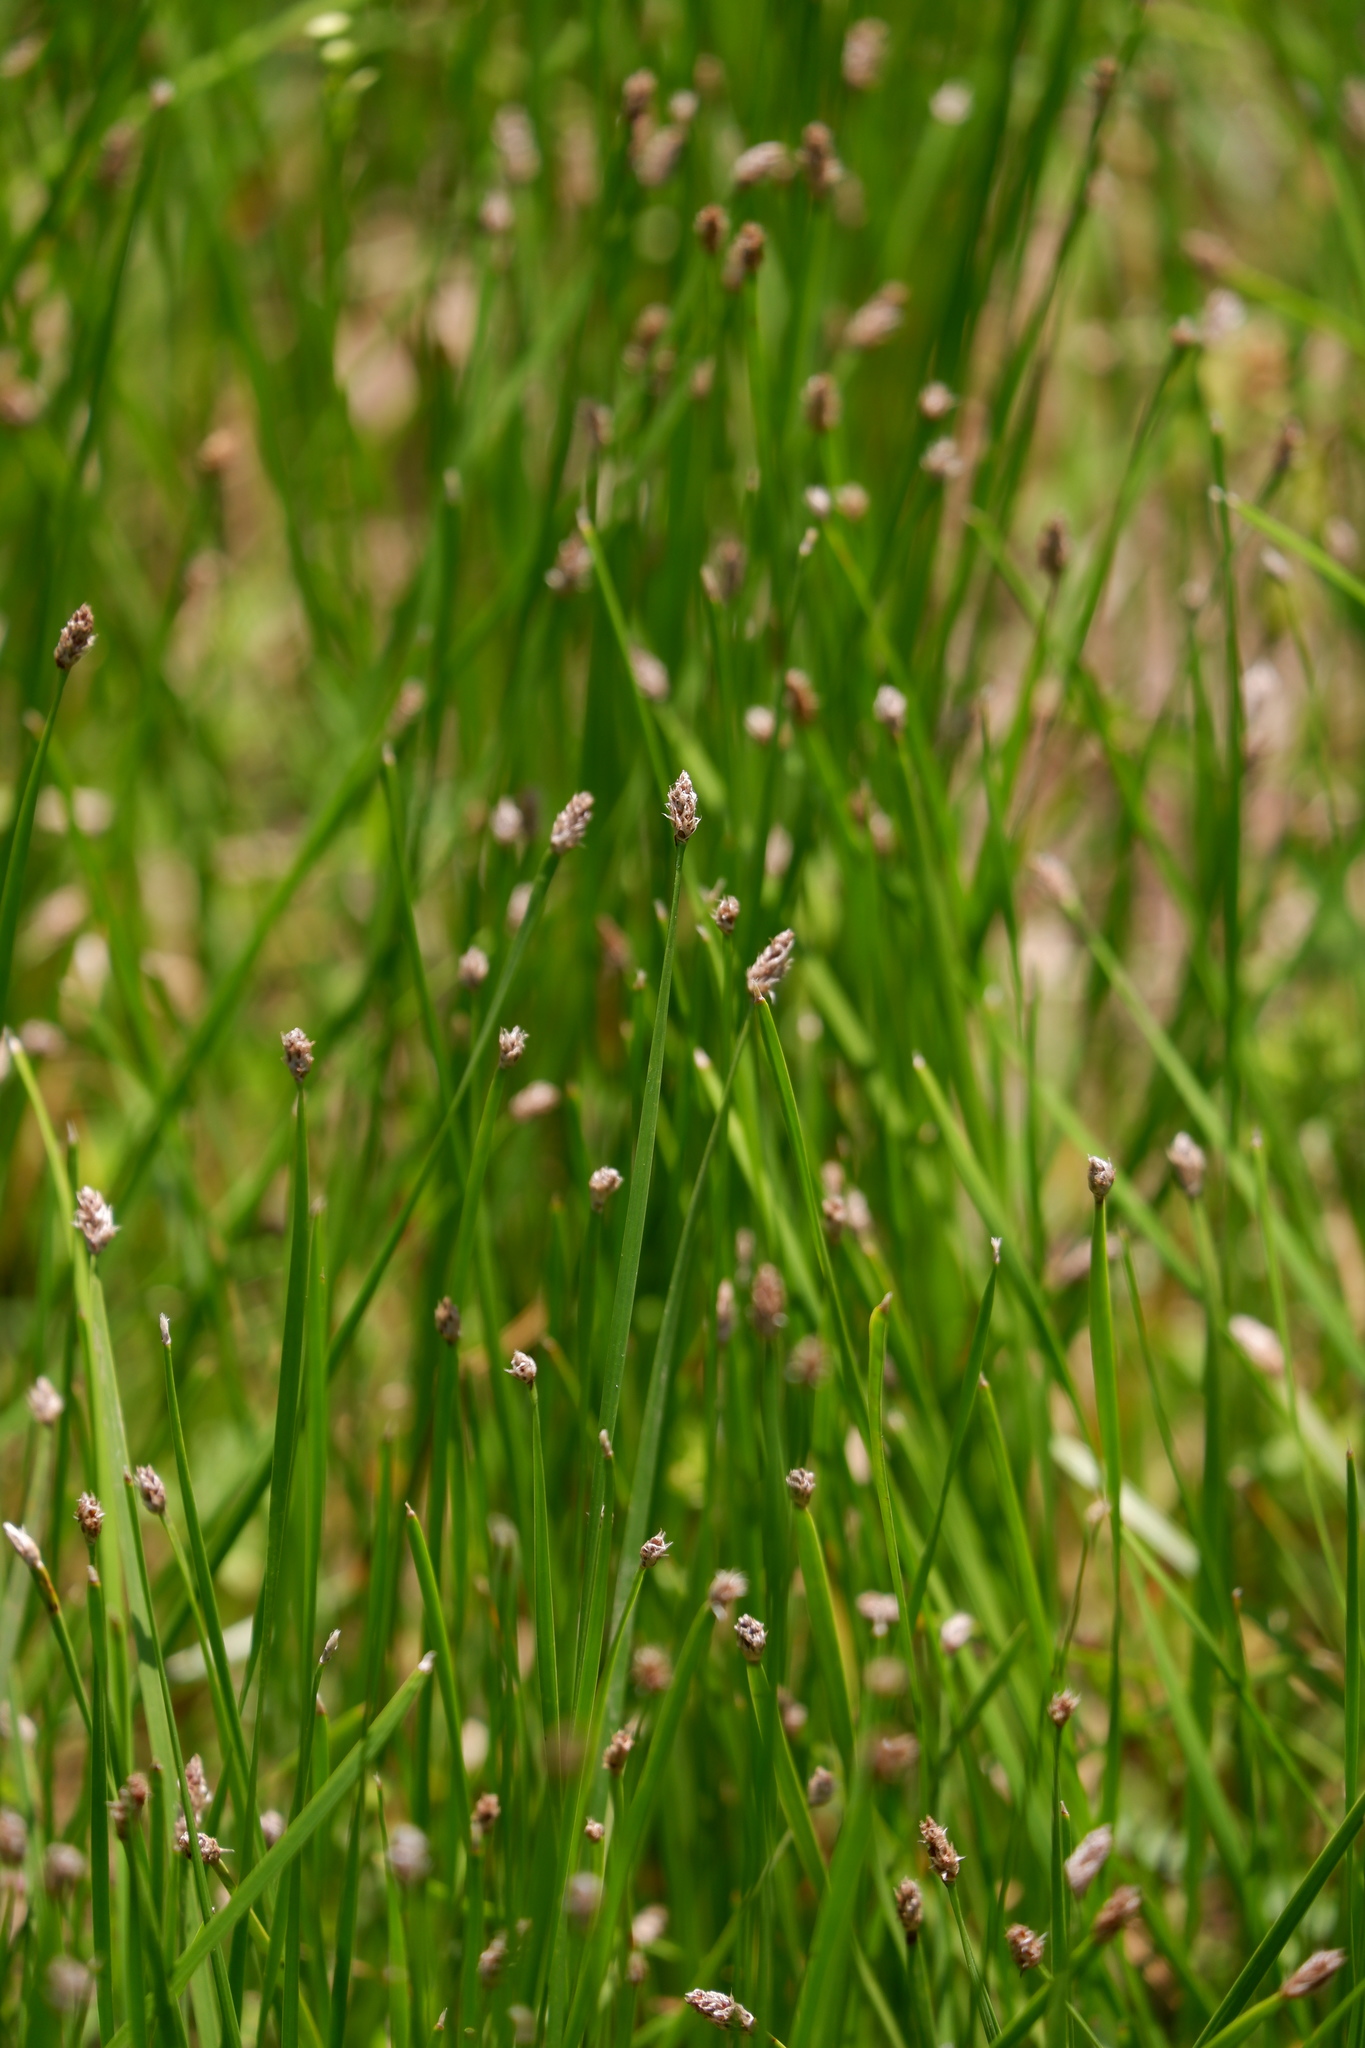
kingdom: Plantae
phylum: Tracheophyta
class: Liliopsida
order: Poales
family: Cyperaceae
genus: Eleocharis
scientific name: Eleocharis bifida
